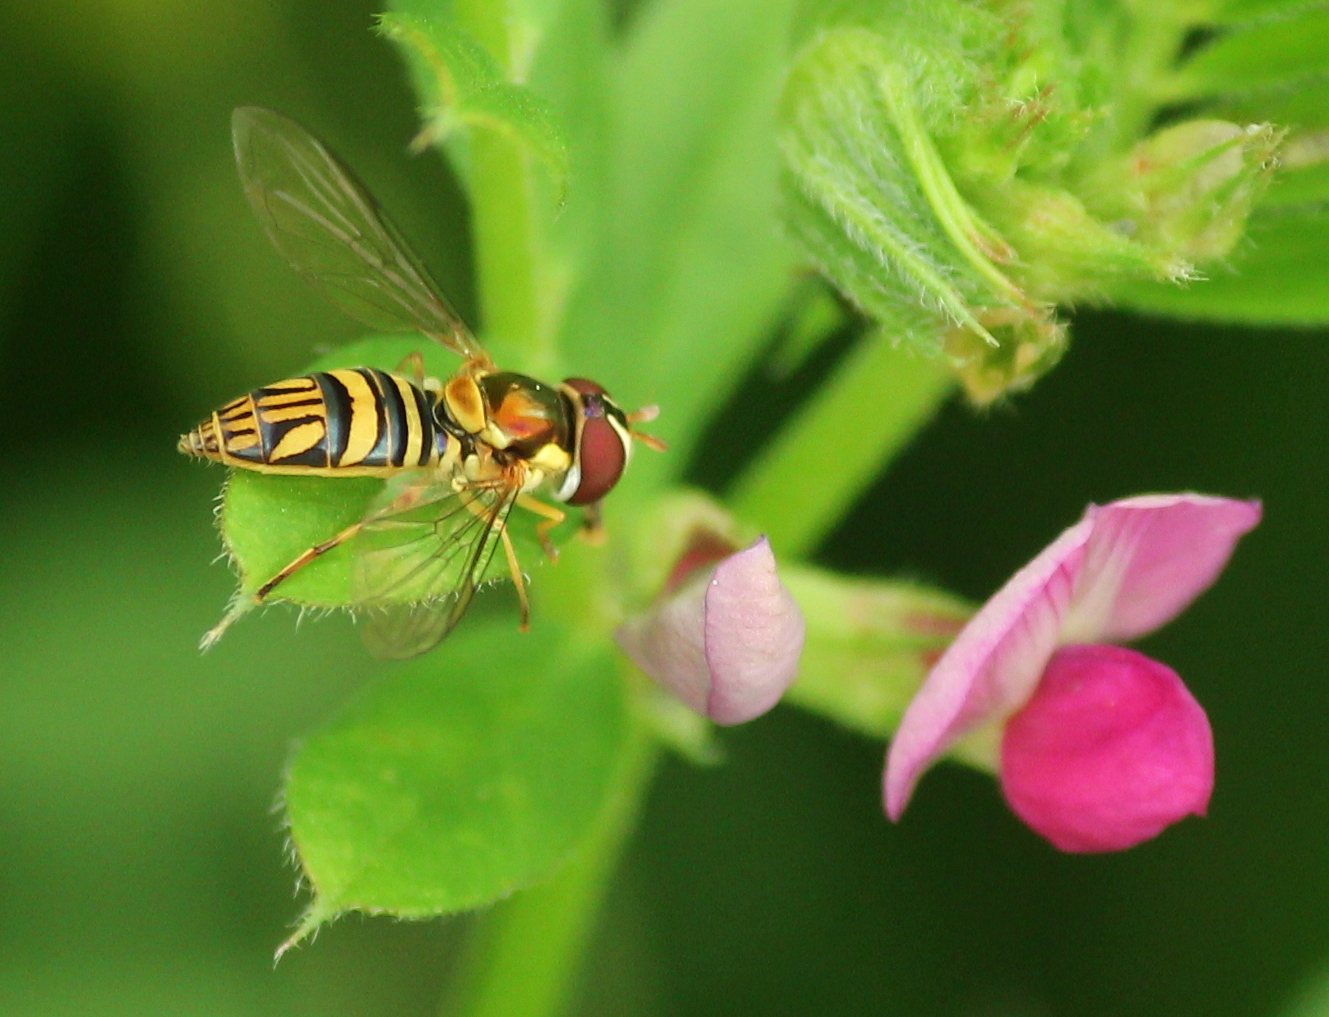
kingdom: Animalia
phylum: Arthropoda
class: Insecta
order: Diptera
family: Syrphidae
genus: Allograpta
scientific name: Allograpta obliqua
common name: Common oblique syrphid
